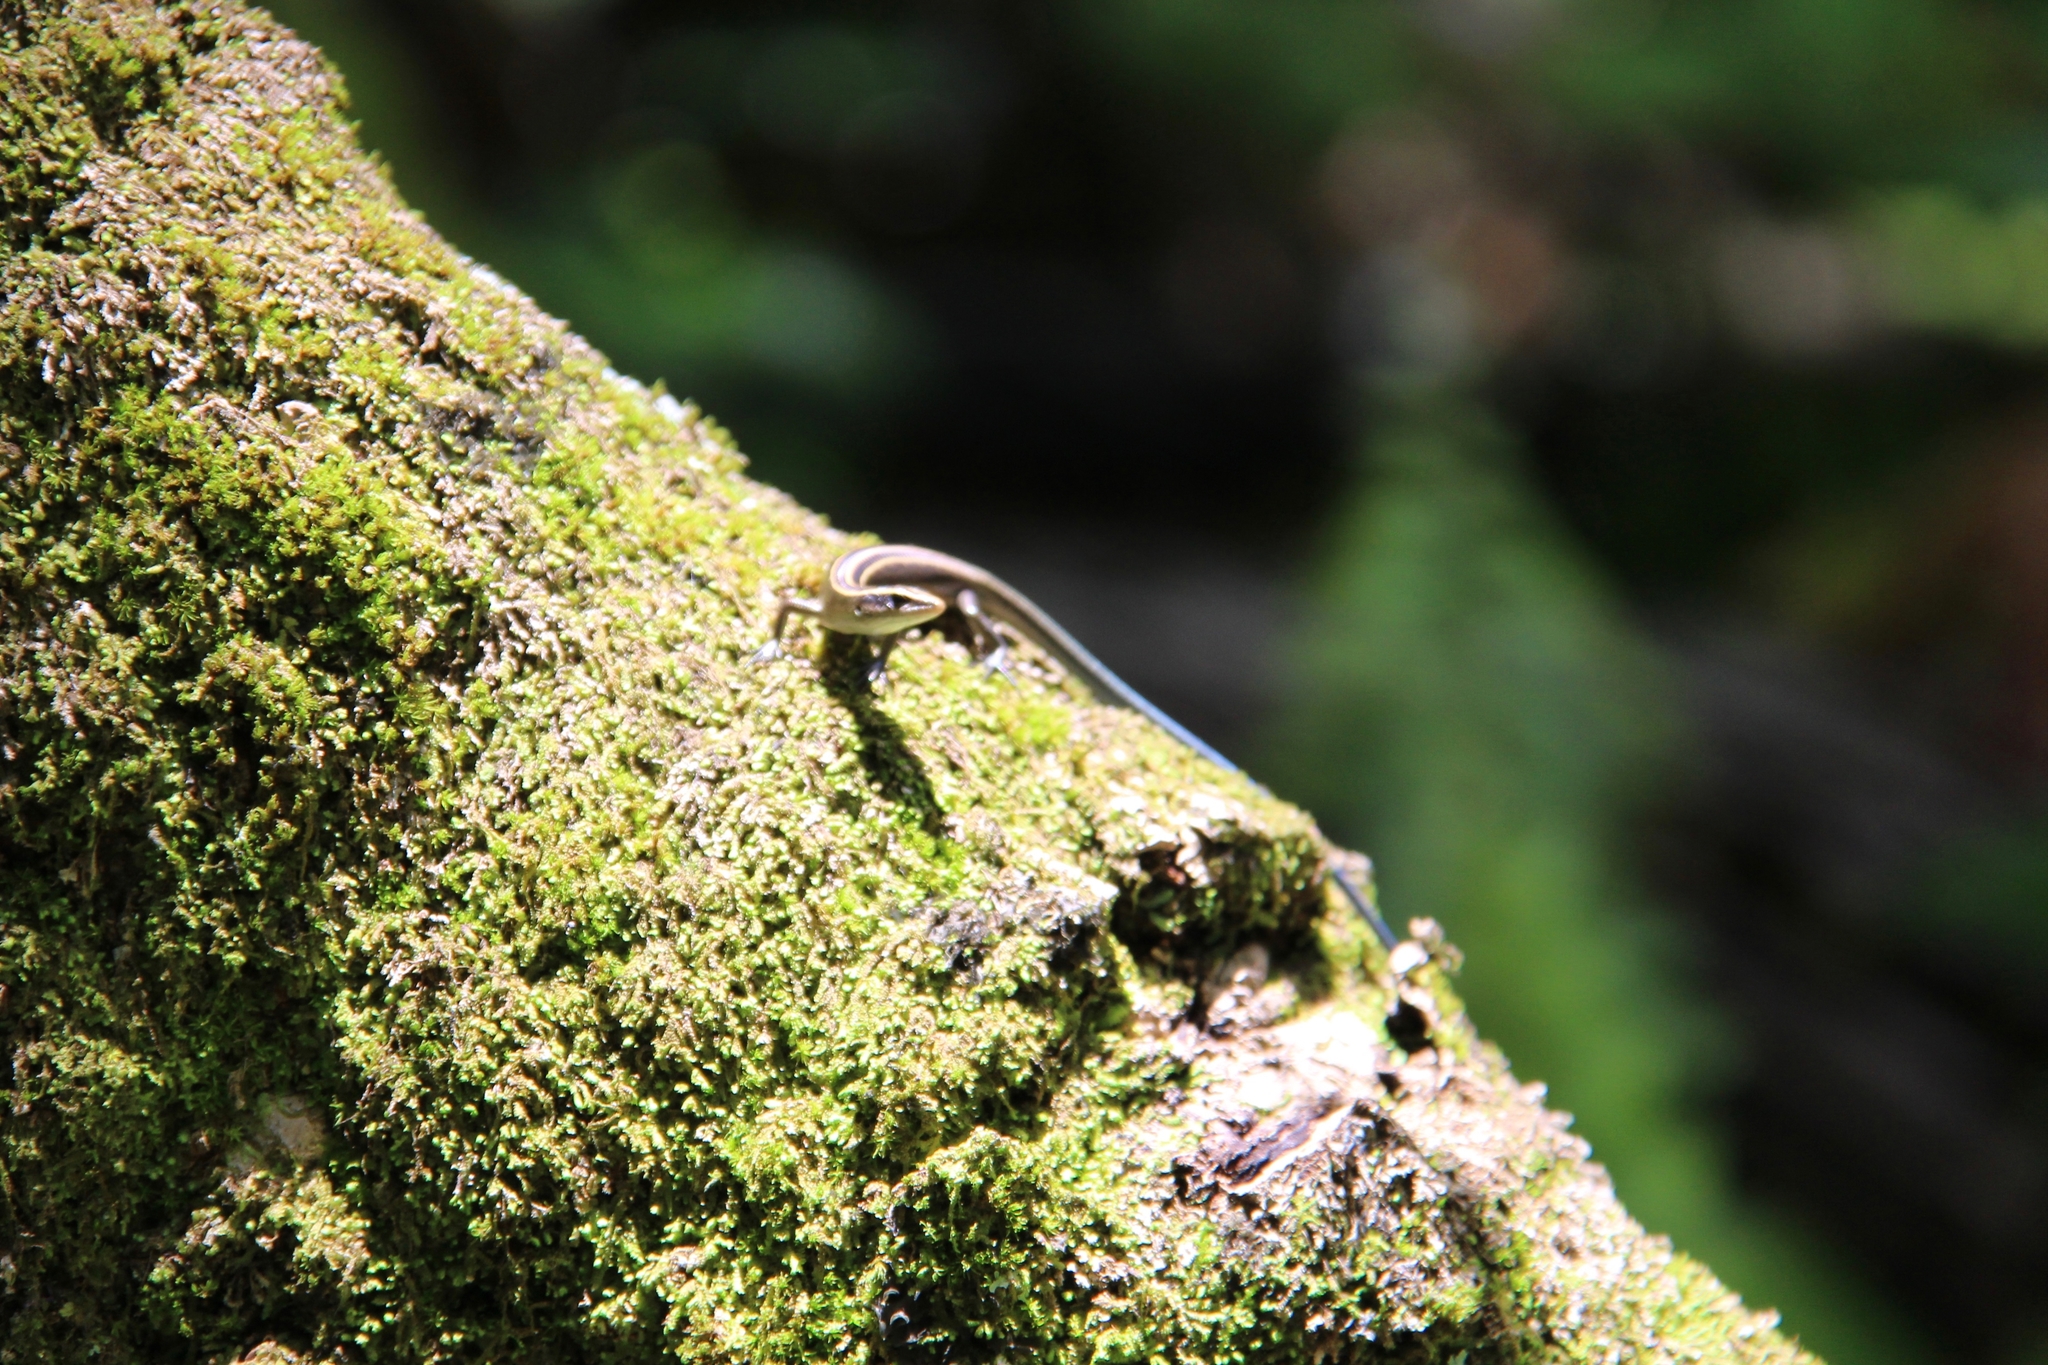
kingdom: Animalia
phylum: Chordata
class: Squamata
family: Scincidae
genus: Emoia
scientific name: Emoia impar
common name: Azure-tailed skink
